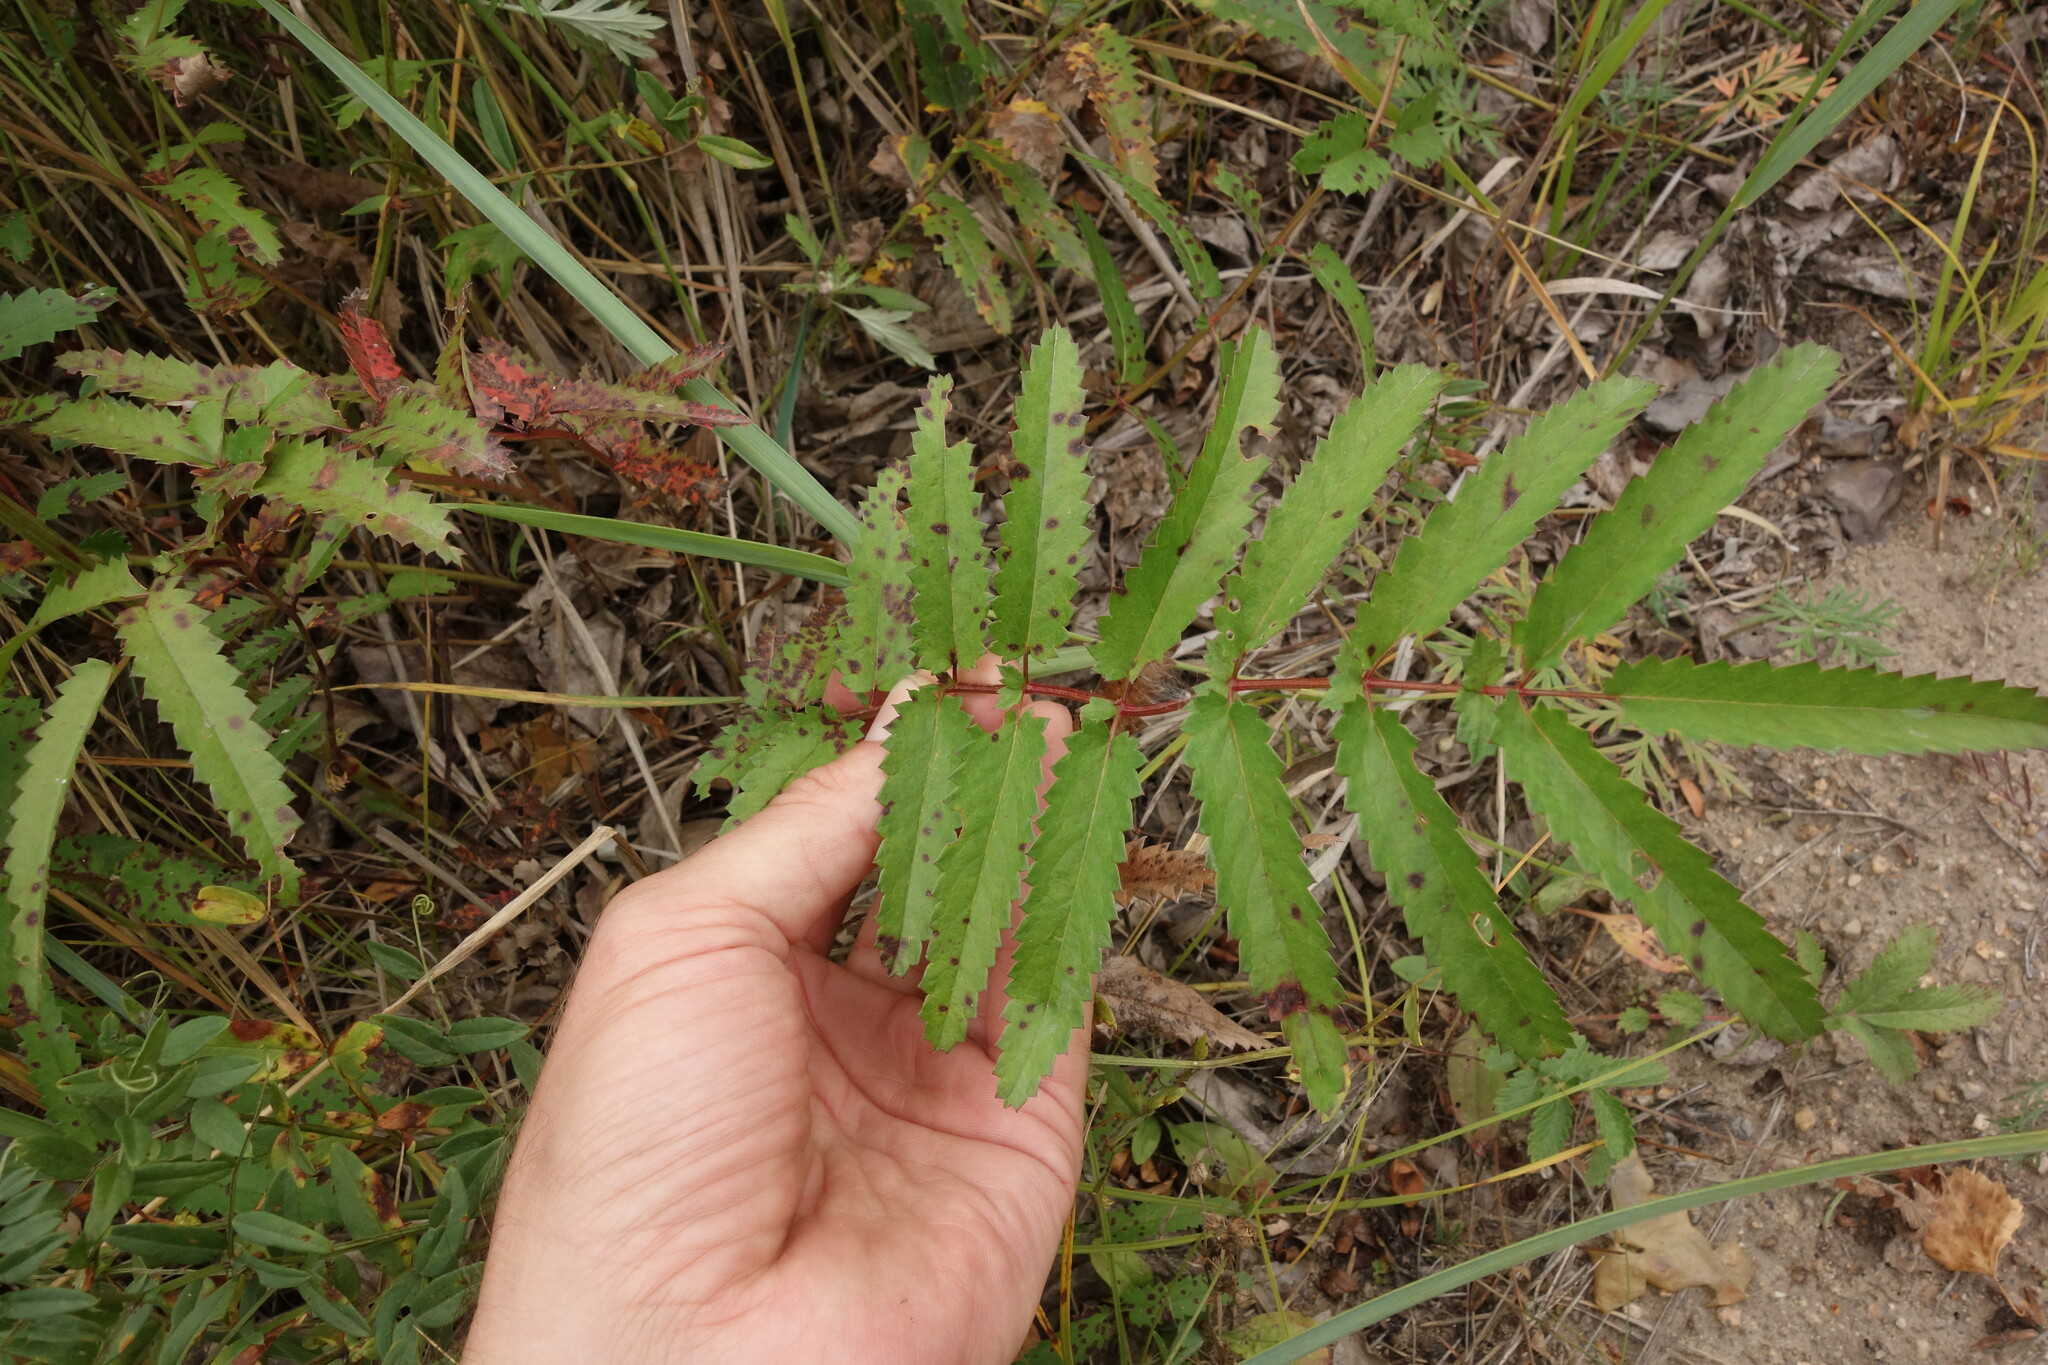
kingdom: Plantae
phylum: Tracheophyta
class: Magnoliopsida
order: Rosales
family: Rosaceae
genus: Poterium
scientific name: Poterium tenuifolium
